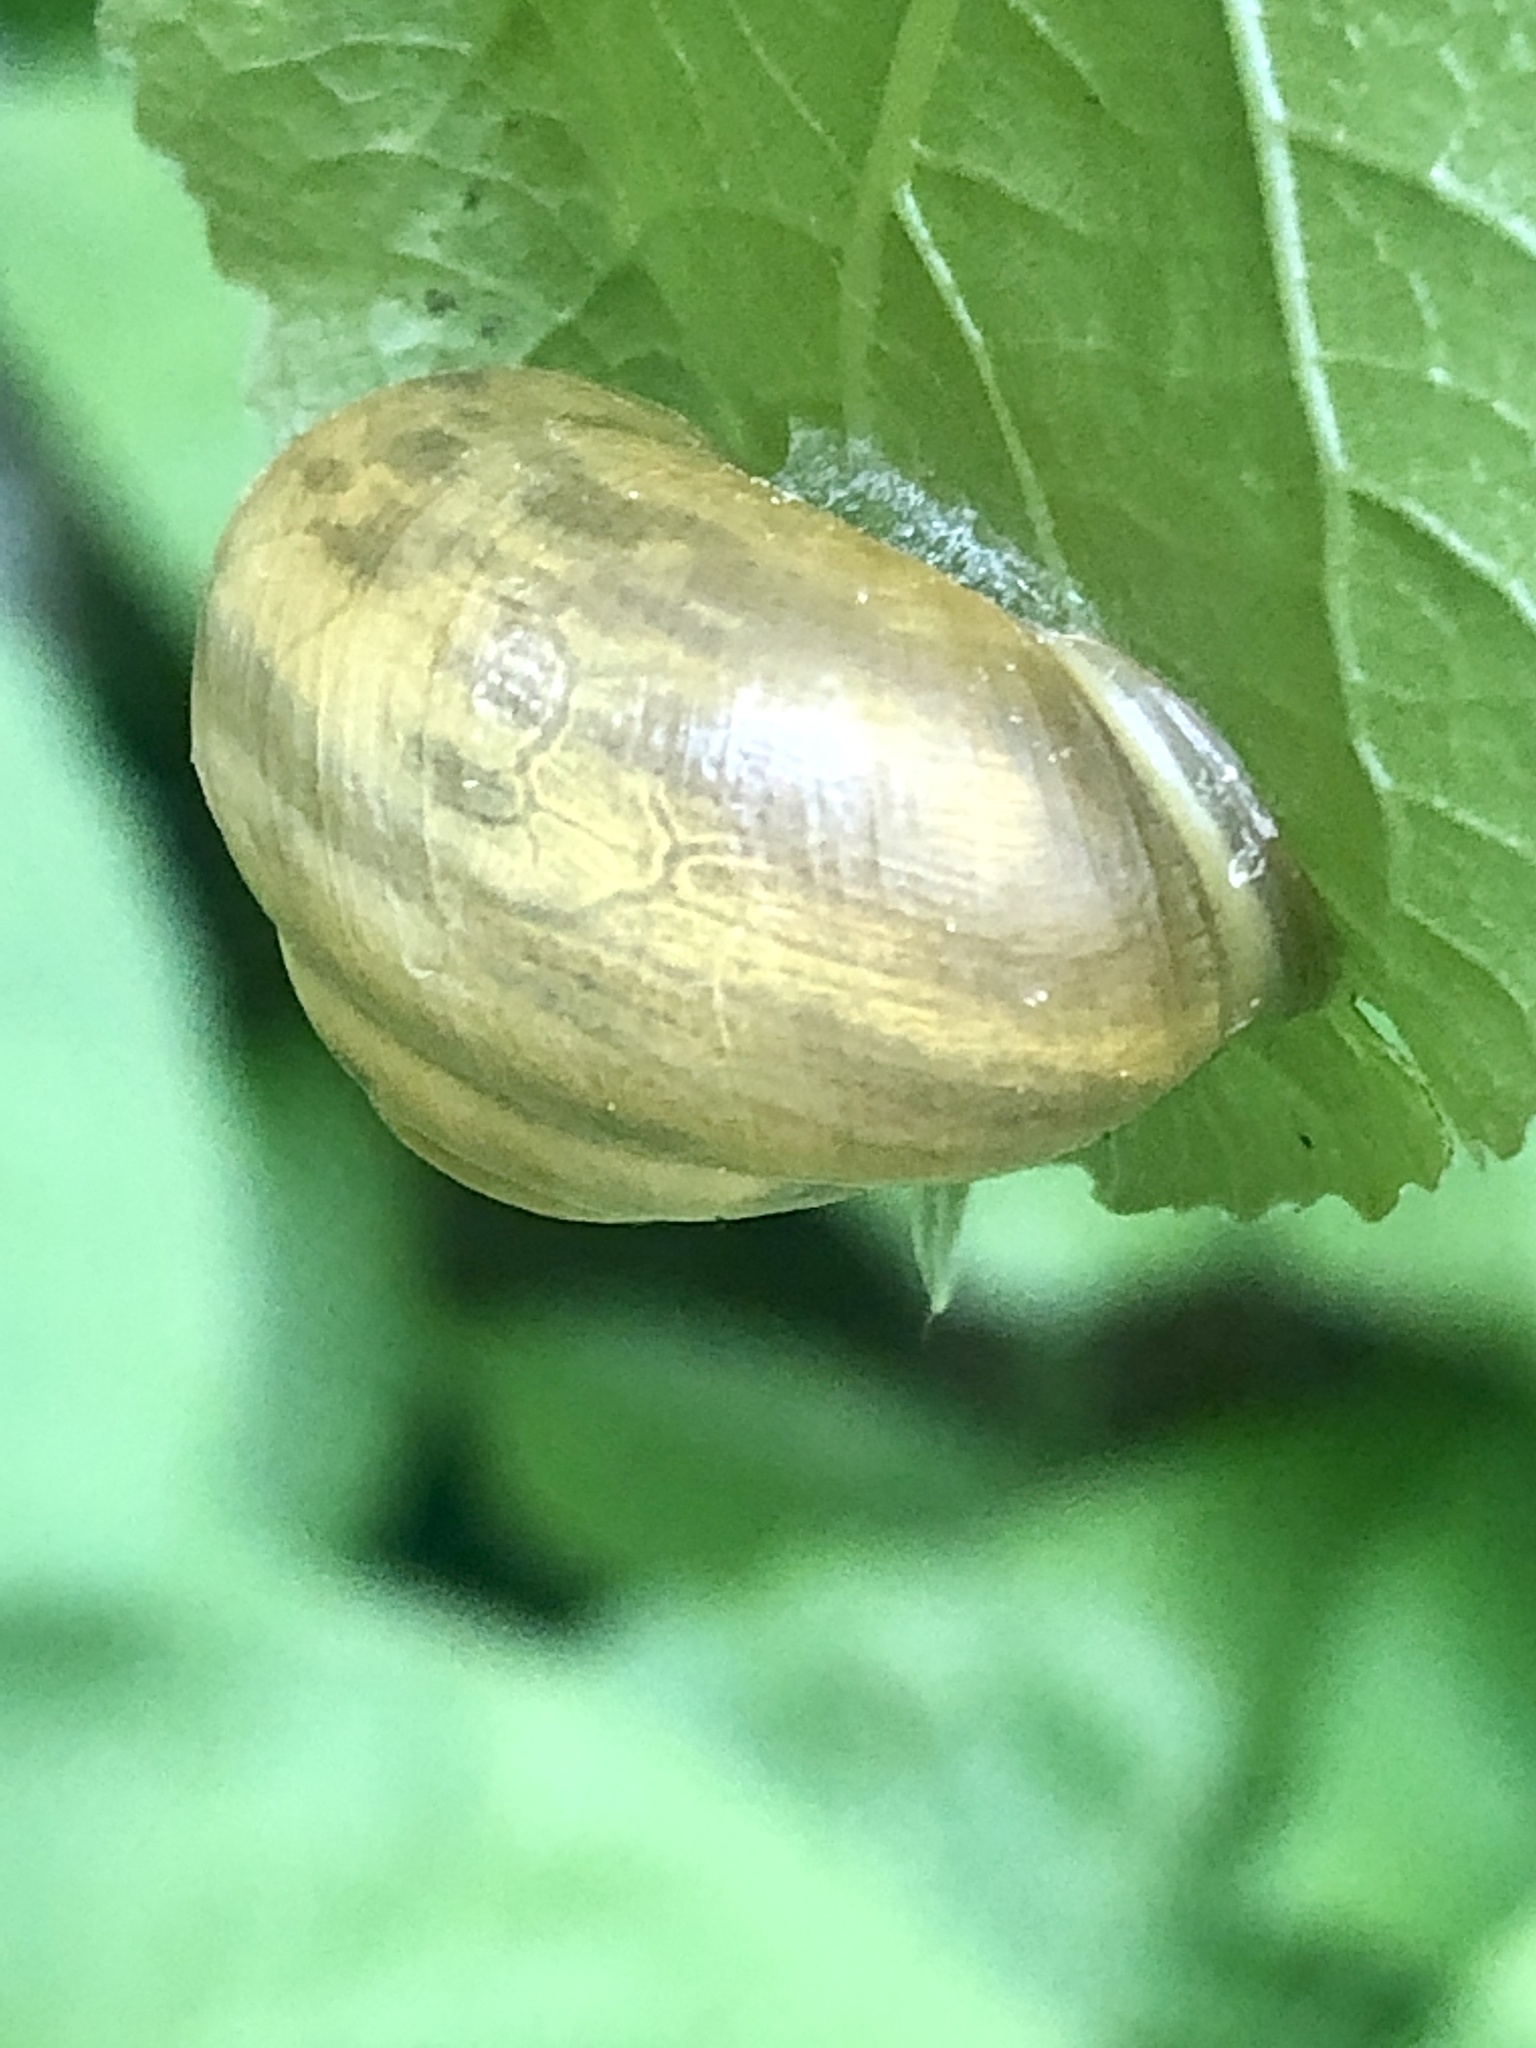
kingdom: Animalia
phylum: Mollusca
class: Gastropoda
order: Stylommatophora
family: Helicidae
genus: Cepaea
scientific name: Cepaea hortensis
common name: White-lip gardensnail
